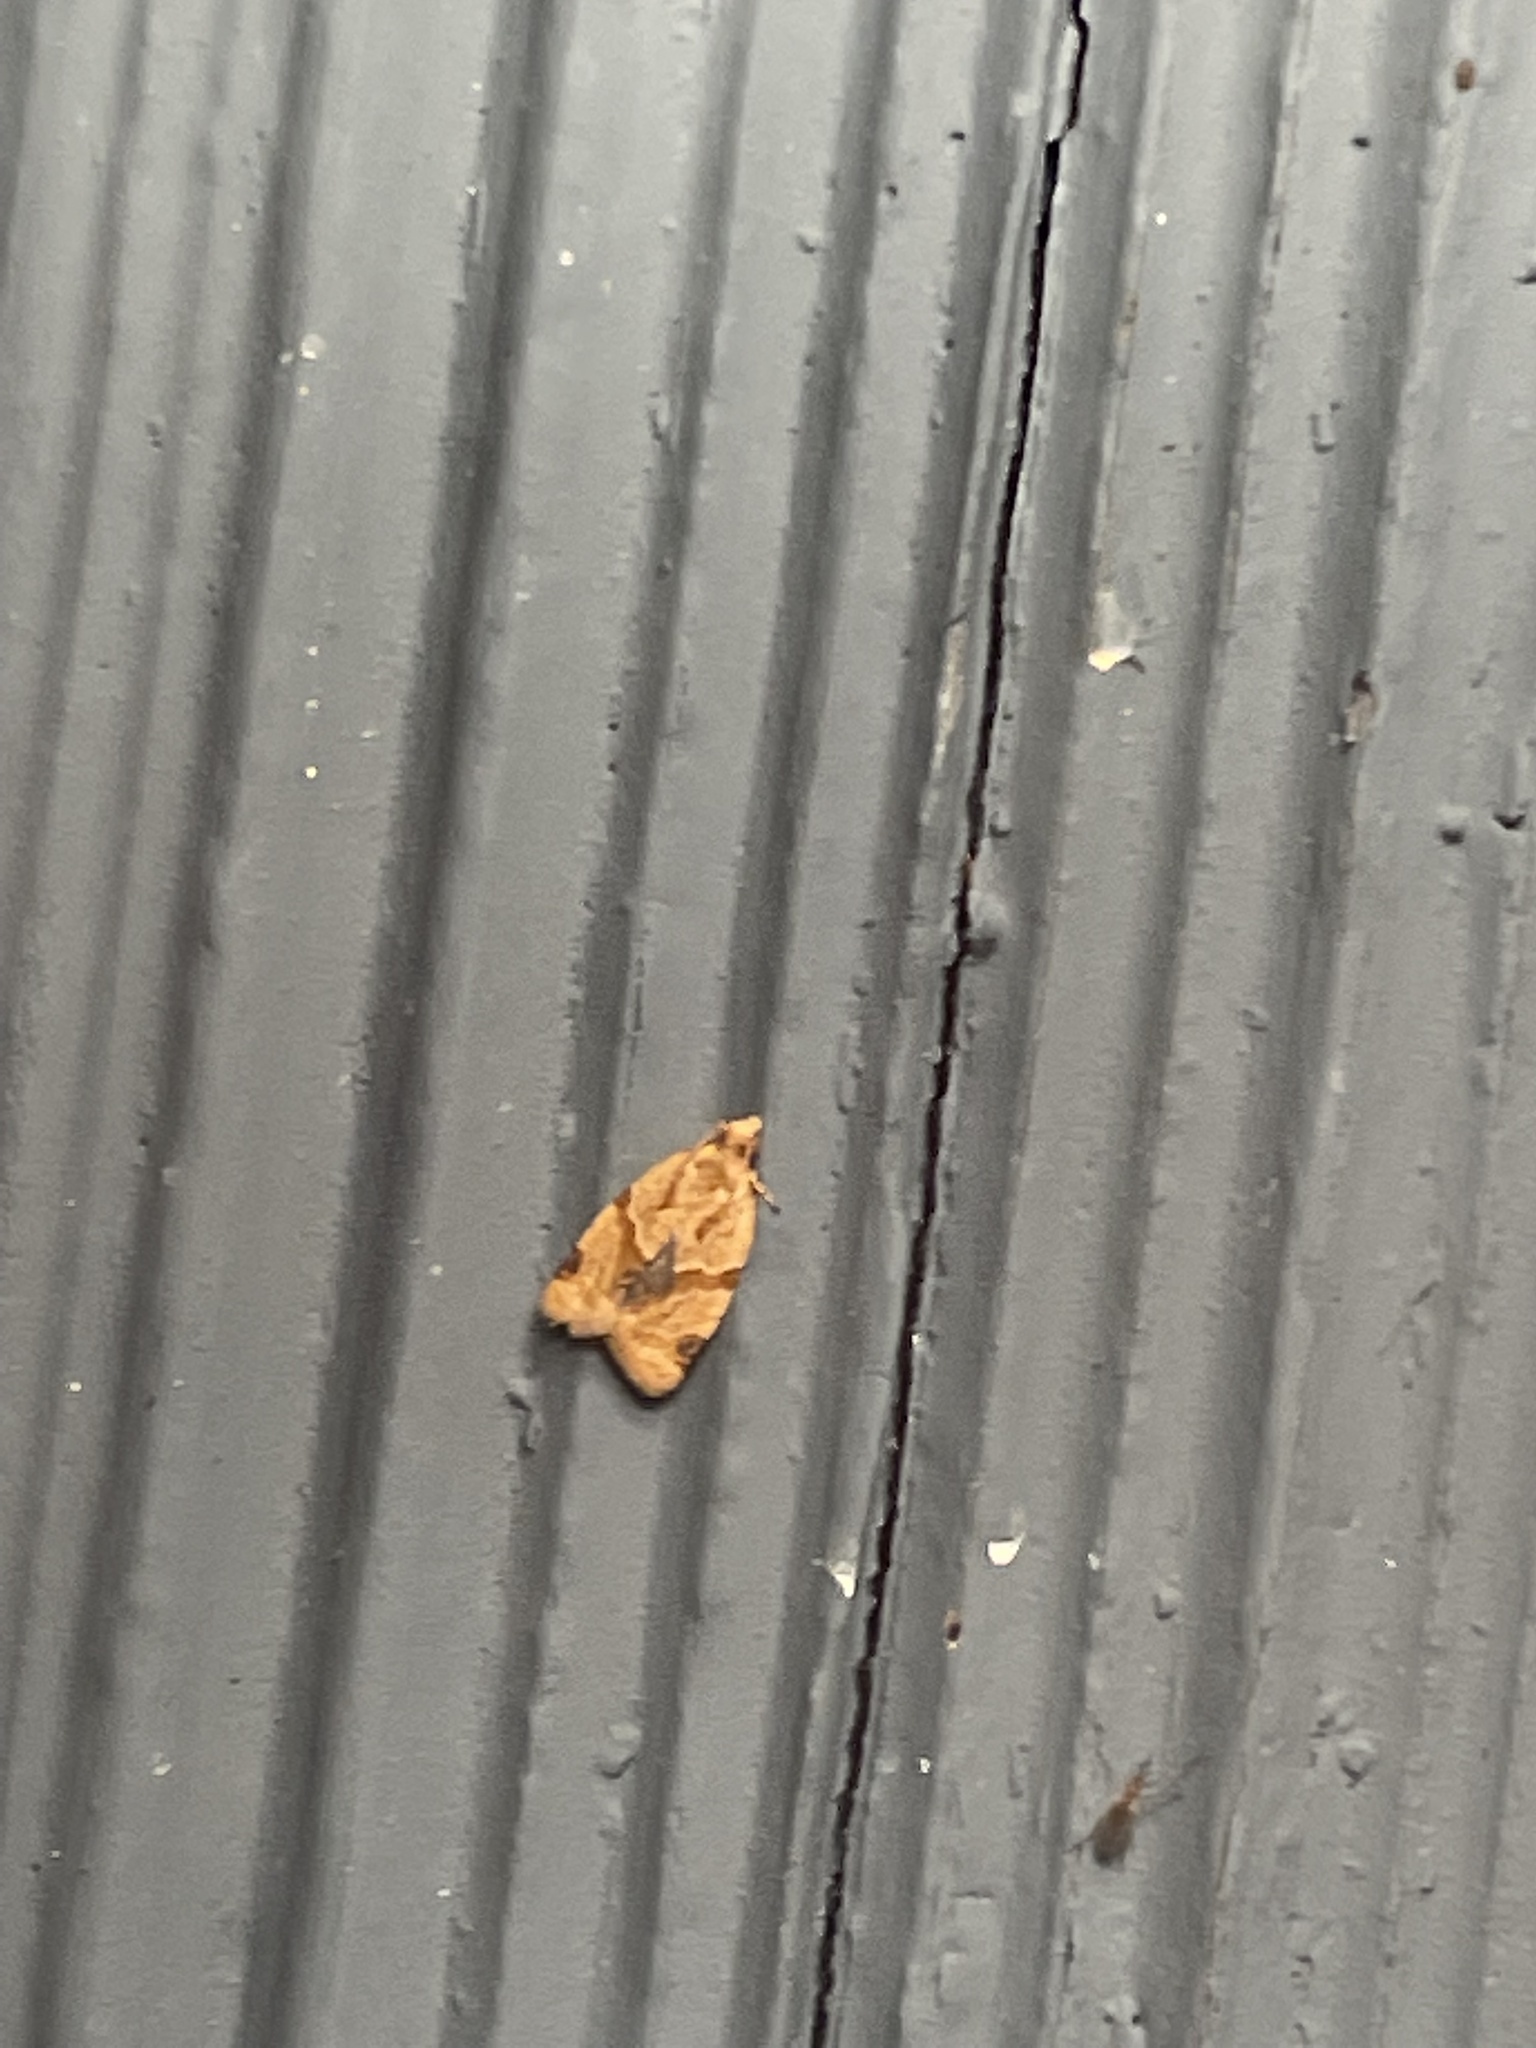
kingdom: Animalia
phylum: Arthropoda
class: Insecta
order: Lepidoptera
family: Tortricidae
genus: Clepsis
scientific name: Clepsis peritana
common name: Garden tortrix
